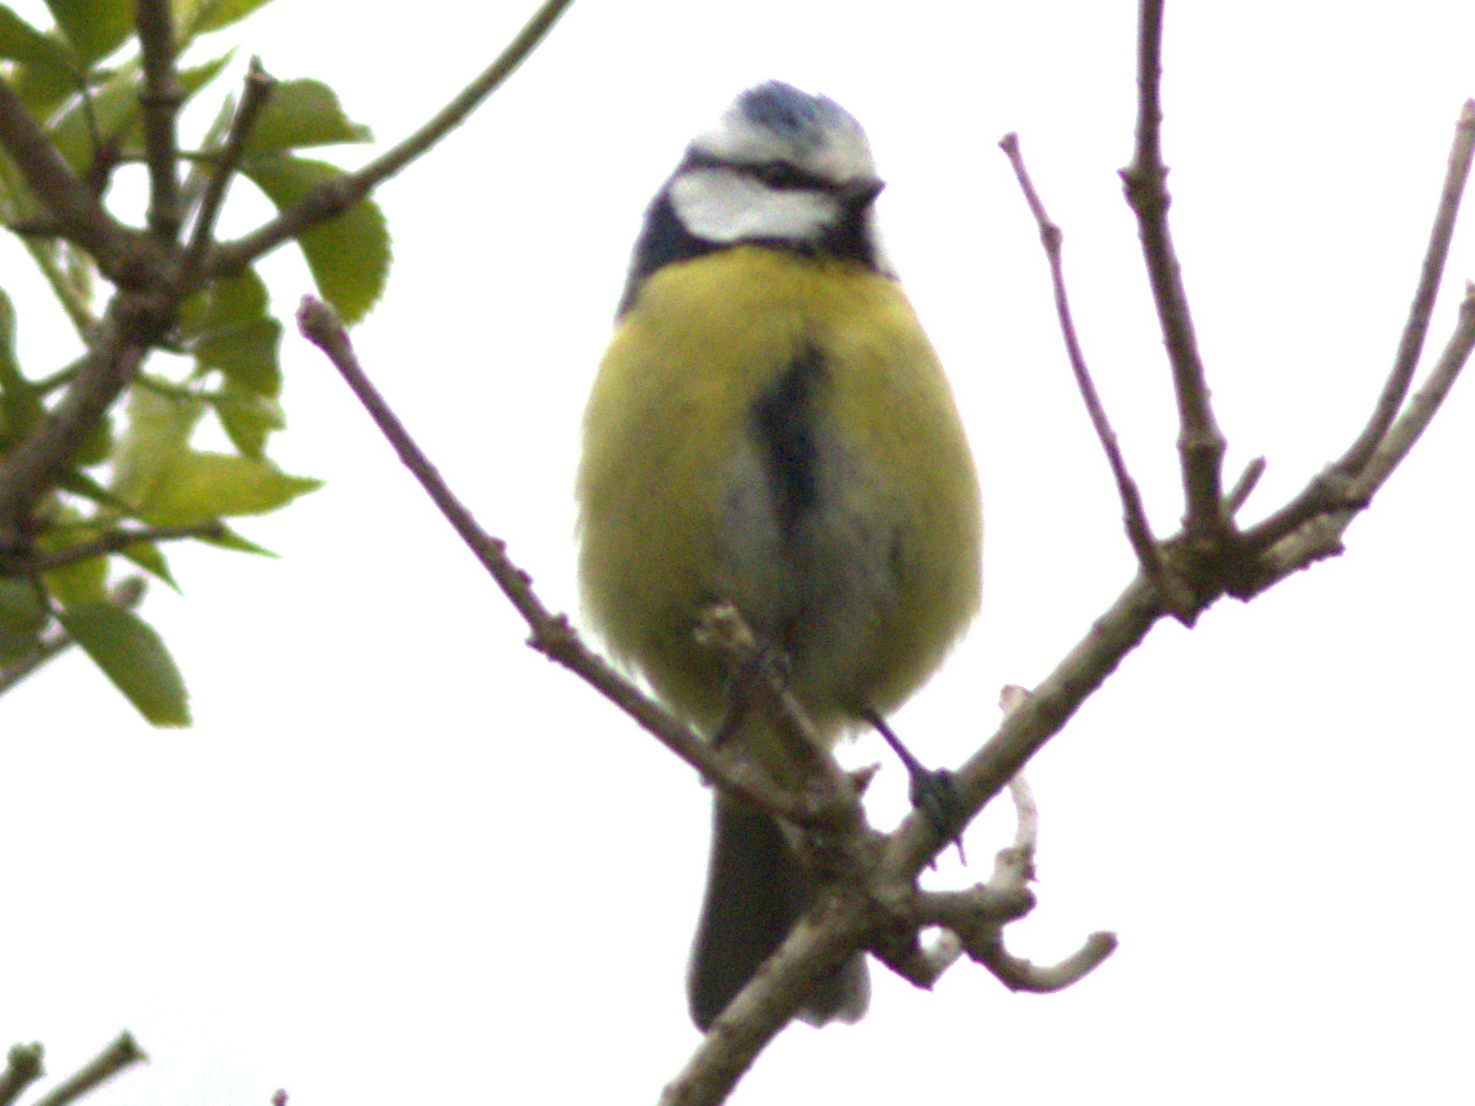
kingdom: Animalia
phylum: Chordata
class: Aves
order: Passeriformes
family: Paridae
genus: Cyanistes
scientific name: Cyanistes caeruleus
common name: Eurasian blue tit
